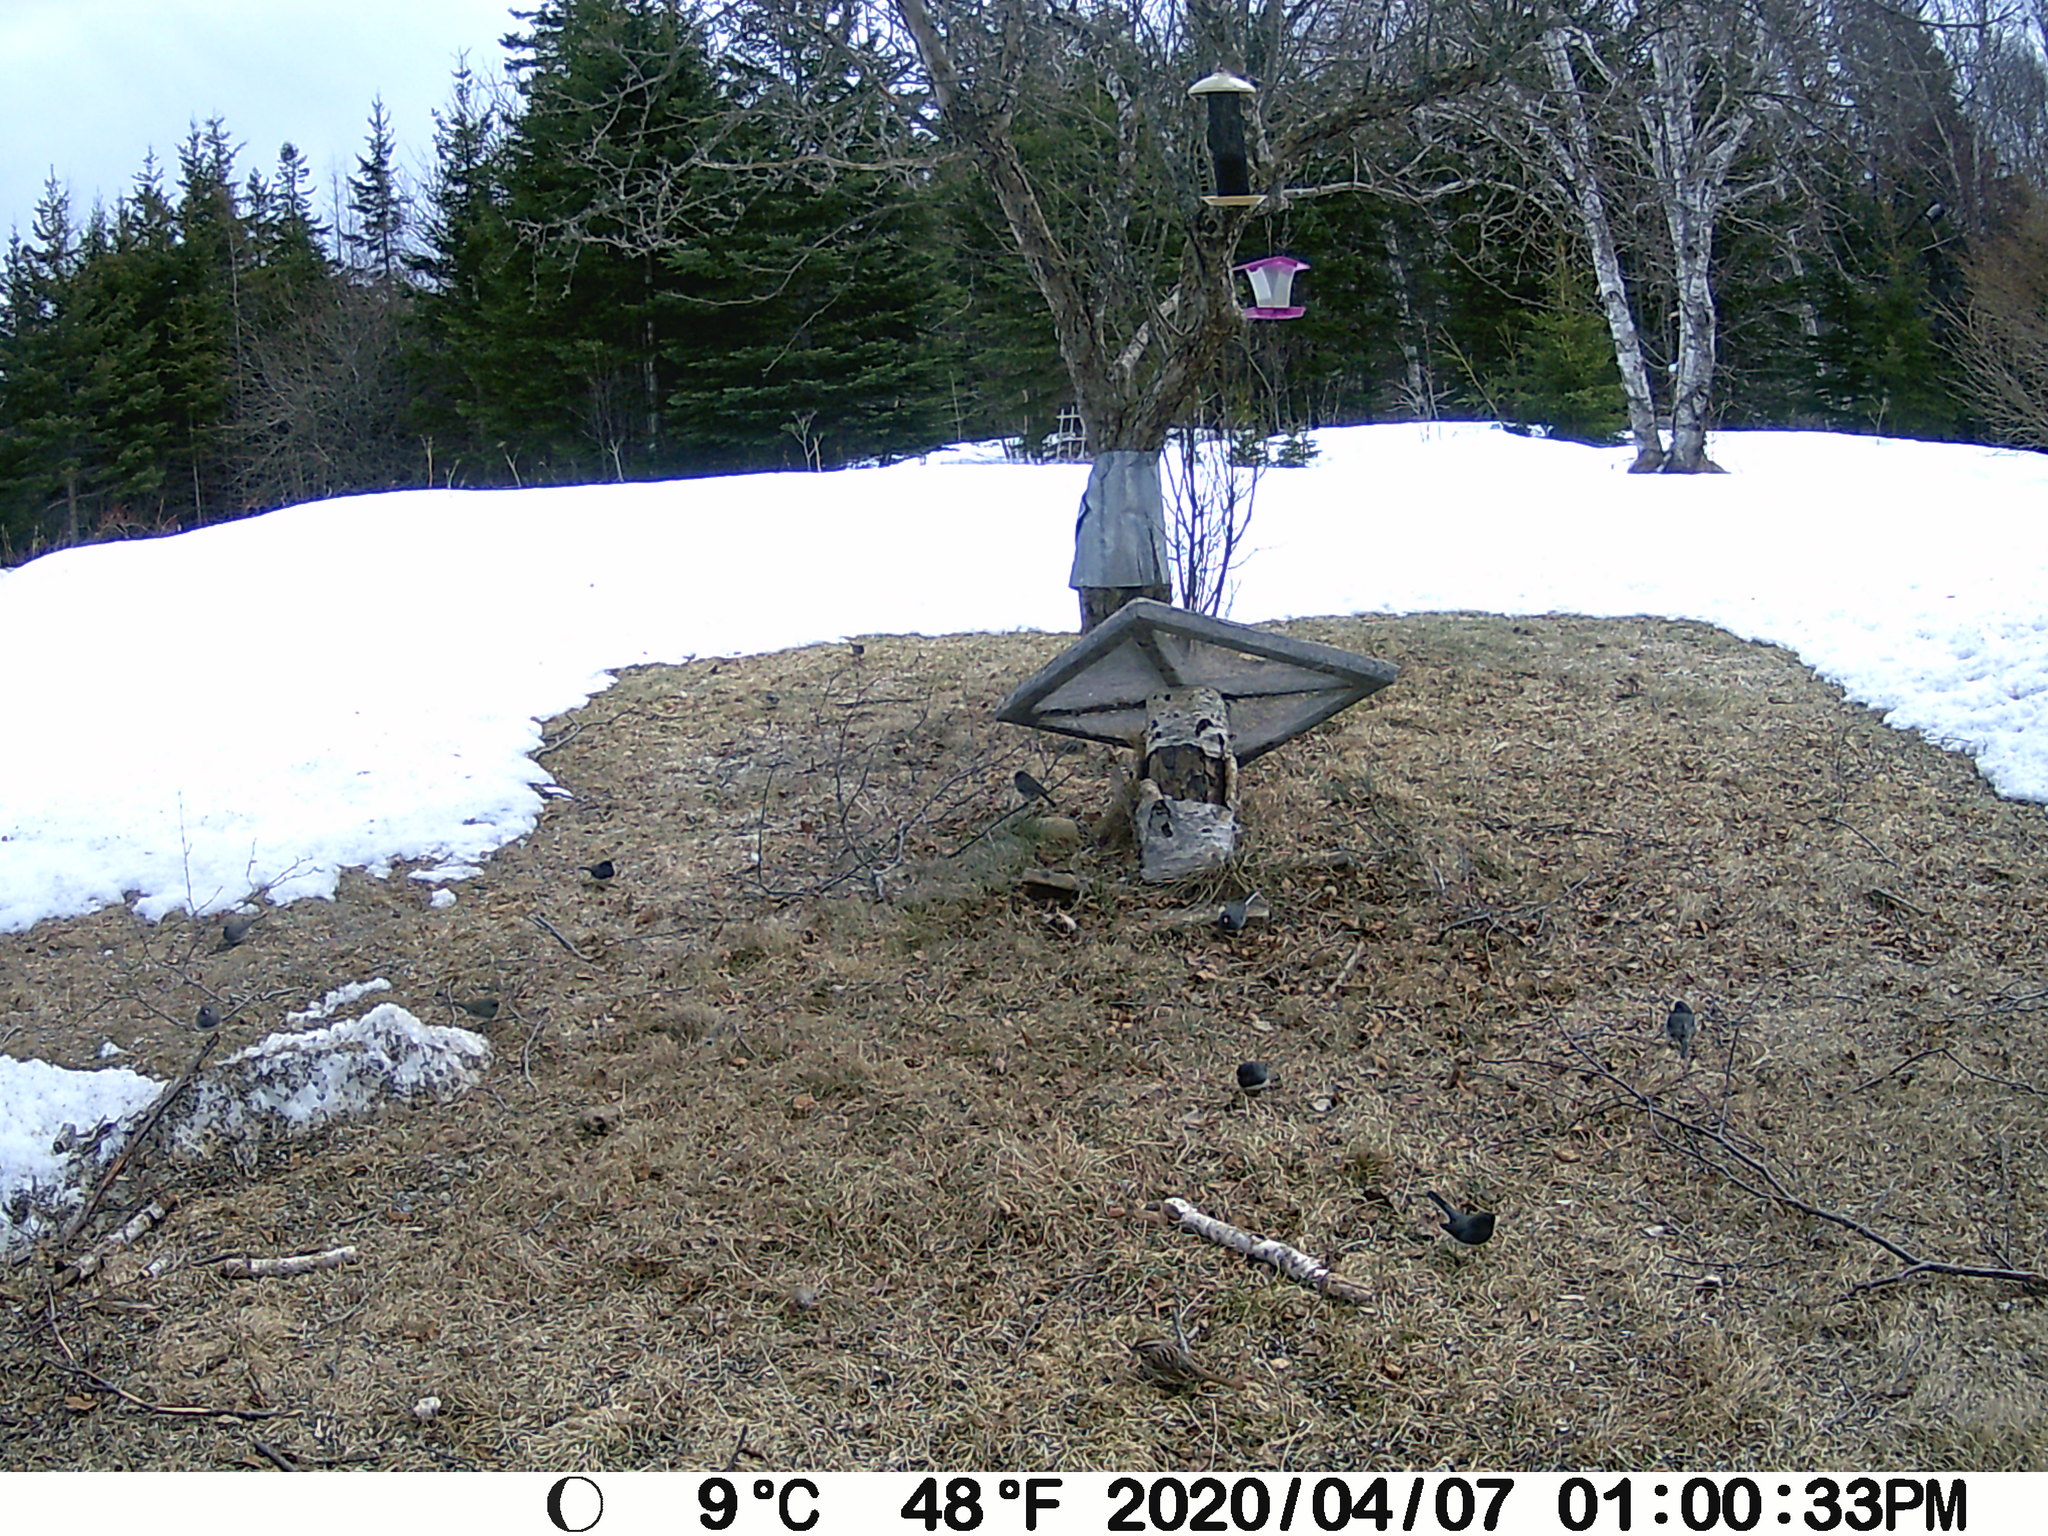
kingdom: Animalia
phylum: Chordata
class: Aves
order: Passeriformes
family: Passerellidae
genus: Junco
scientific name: Junco hyemalis
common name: Dark-eyed junco
